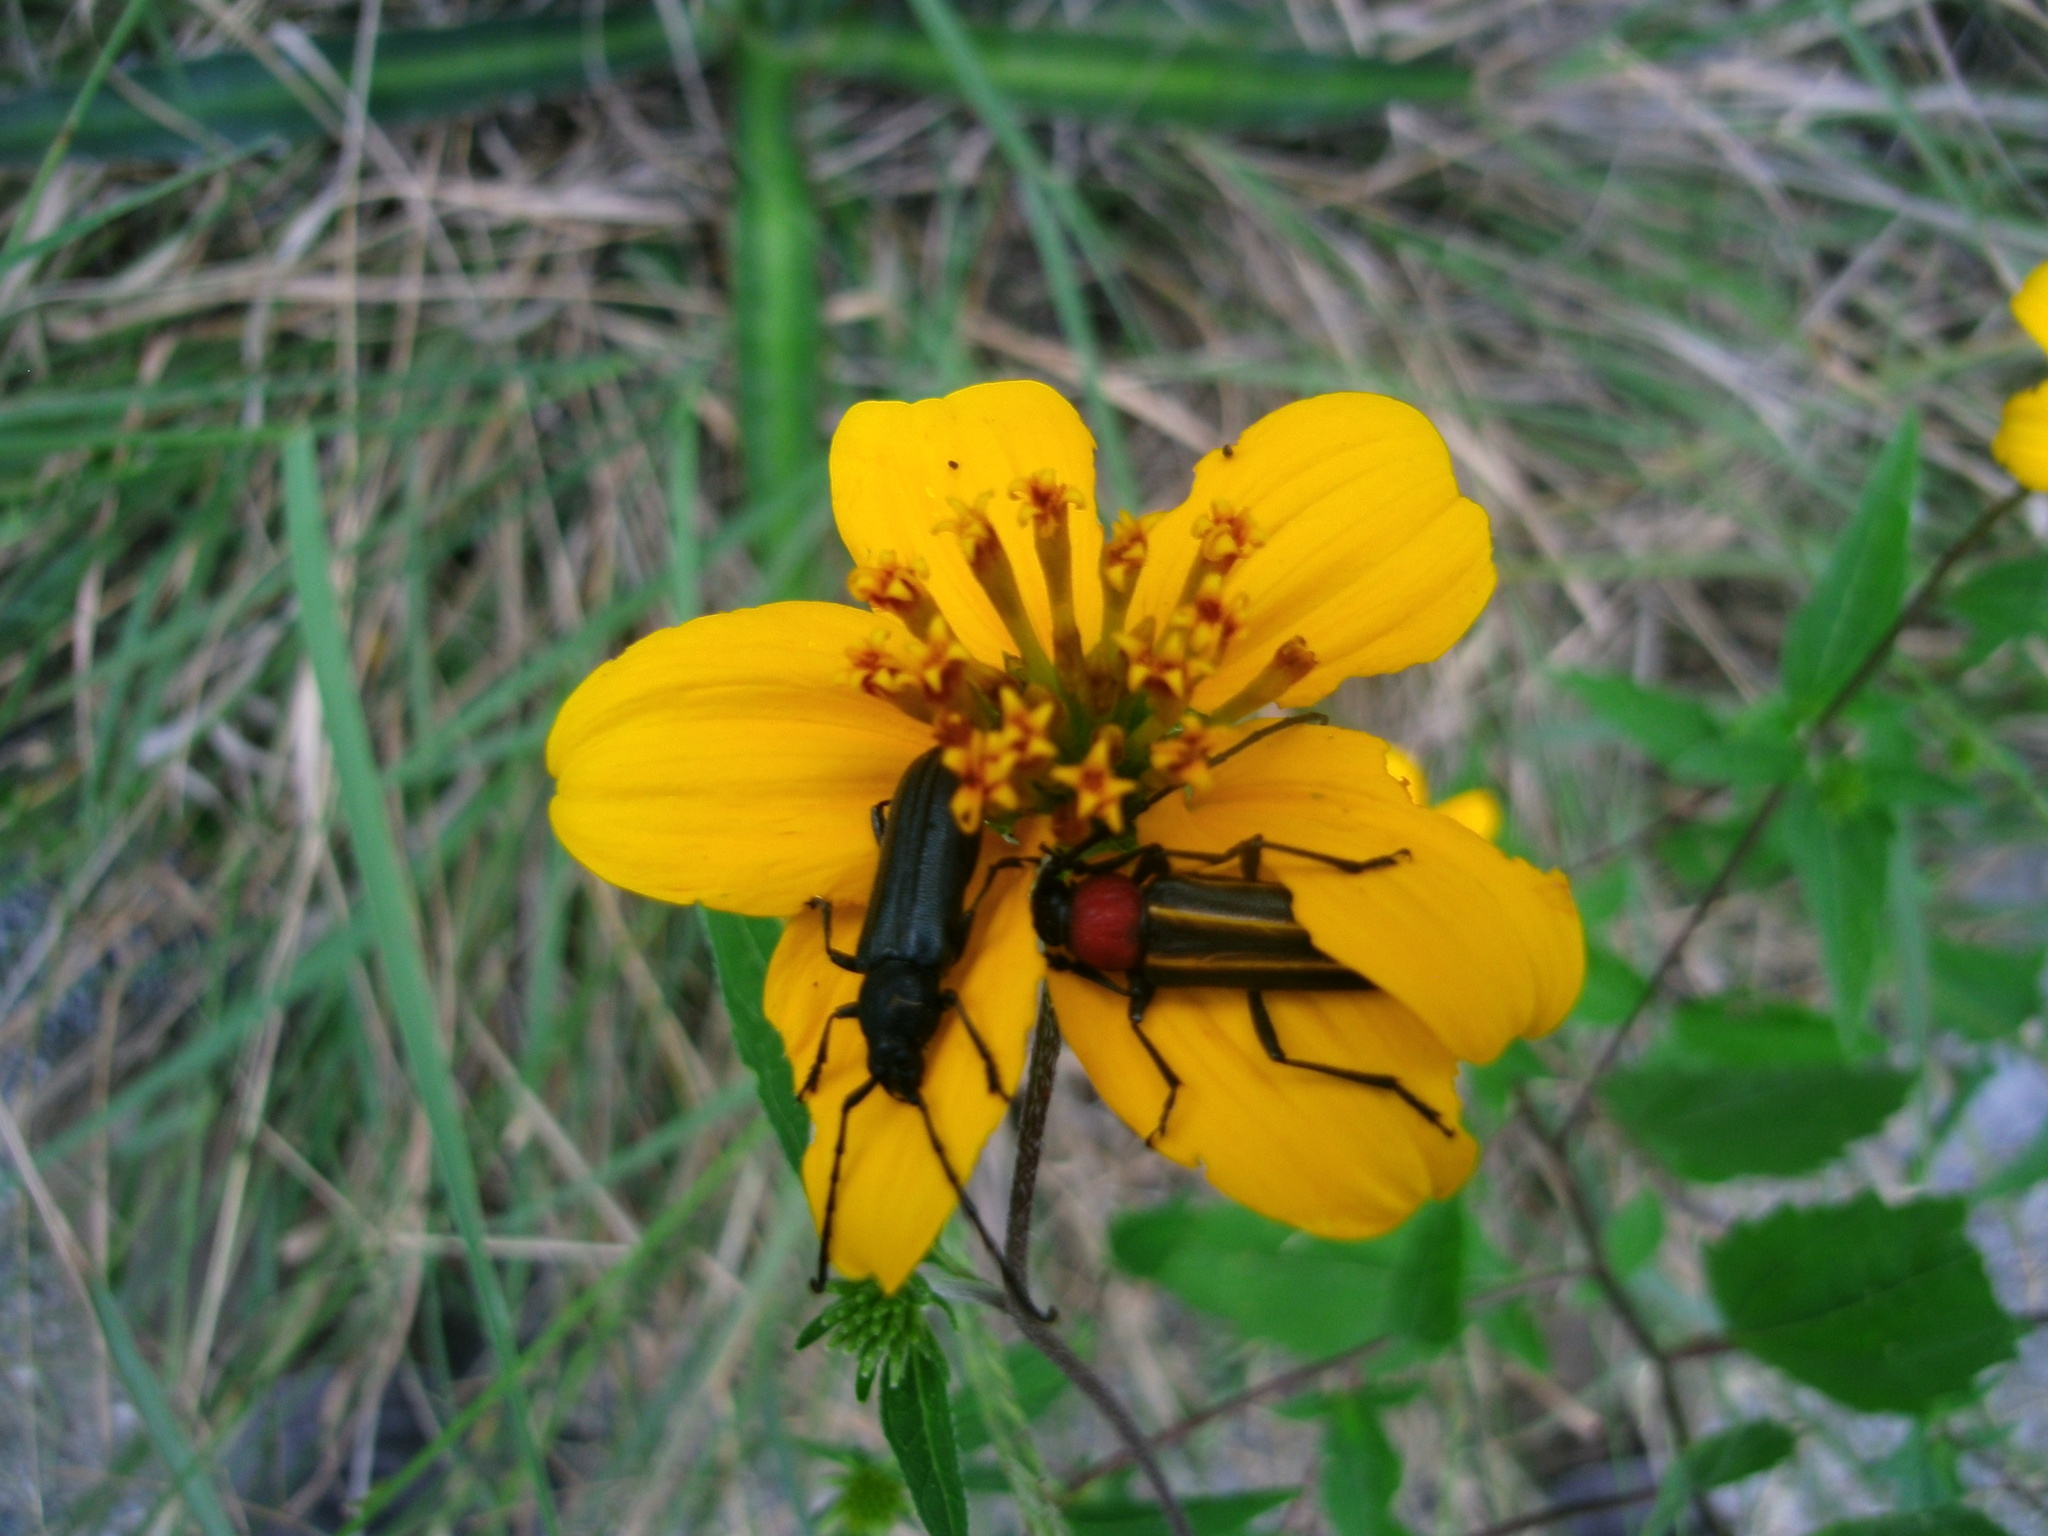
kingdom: Animalia
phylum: Arthropoda
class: Insecta
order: Coleoptera
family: Cerambycidae
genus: Mannophorus
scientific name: Mannophorus laetus
